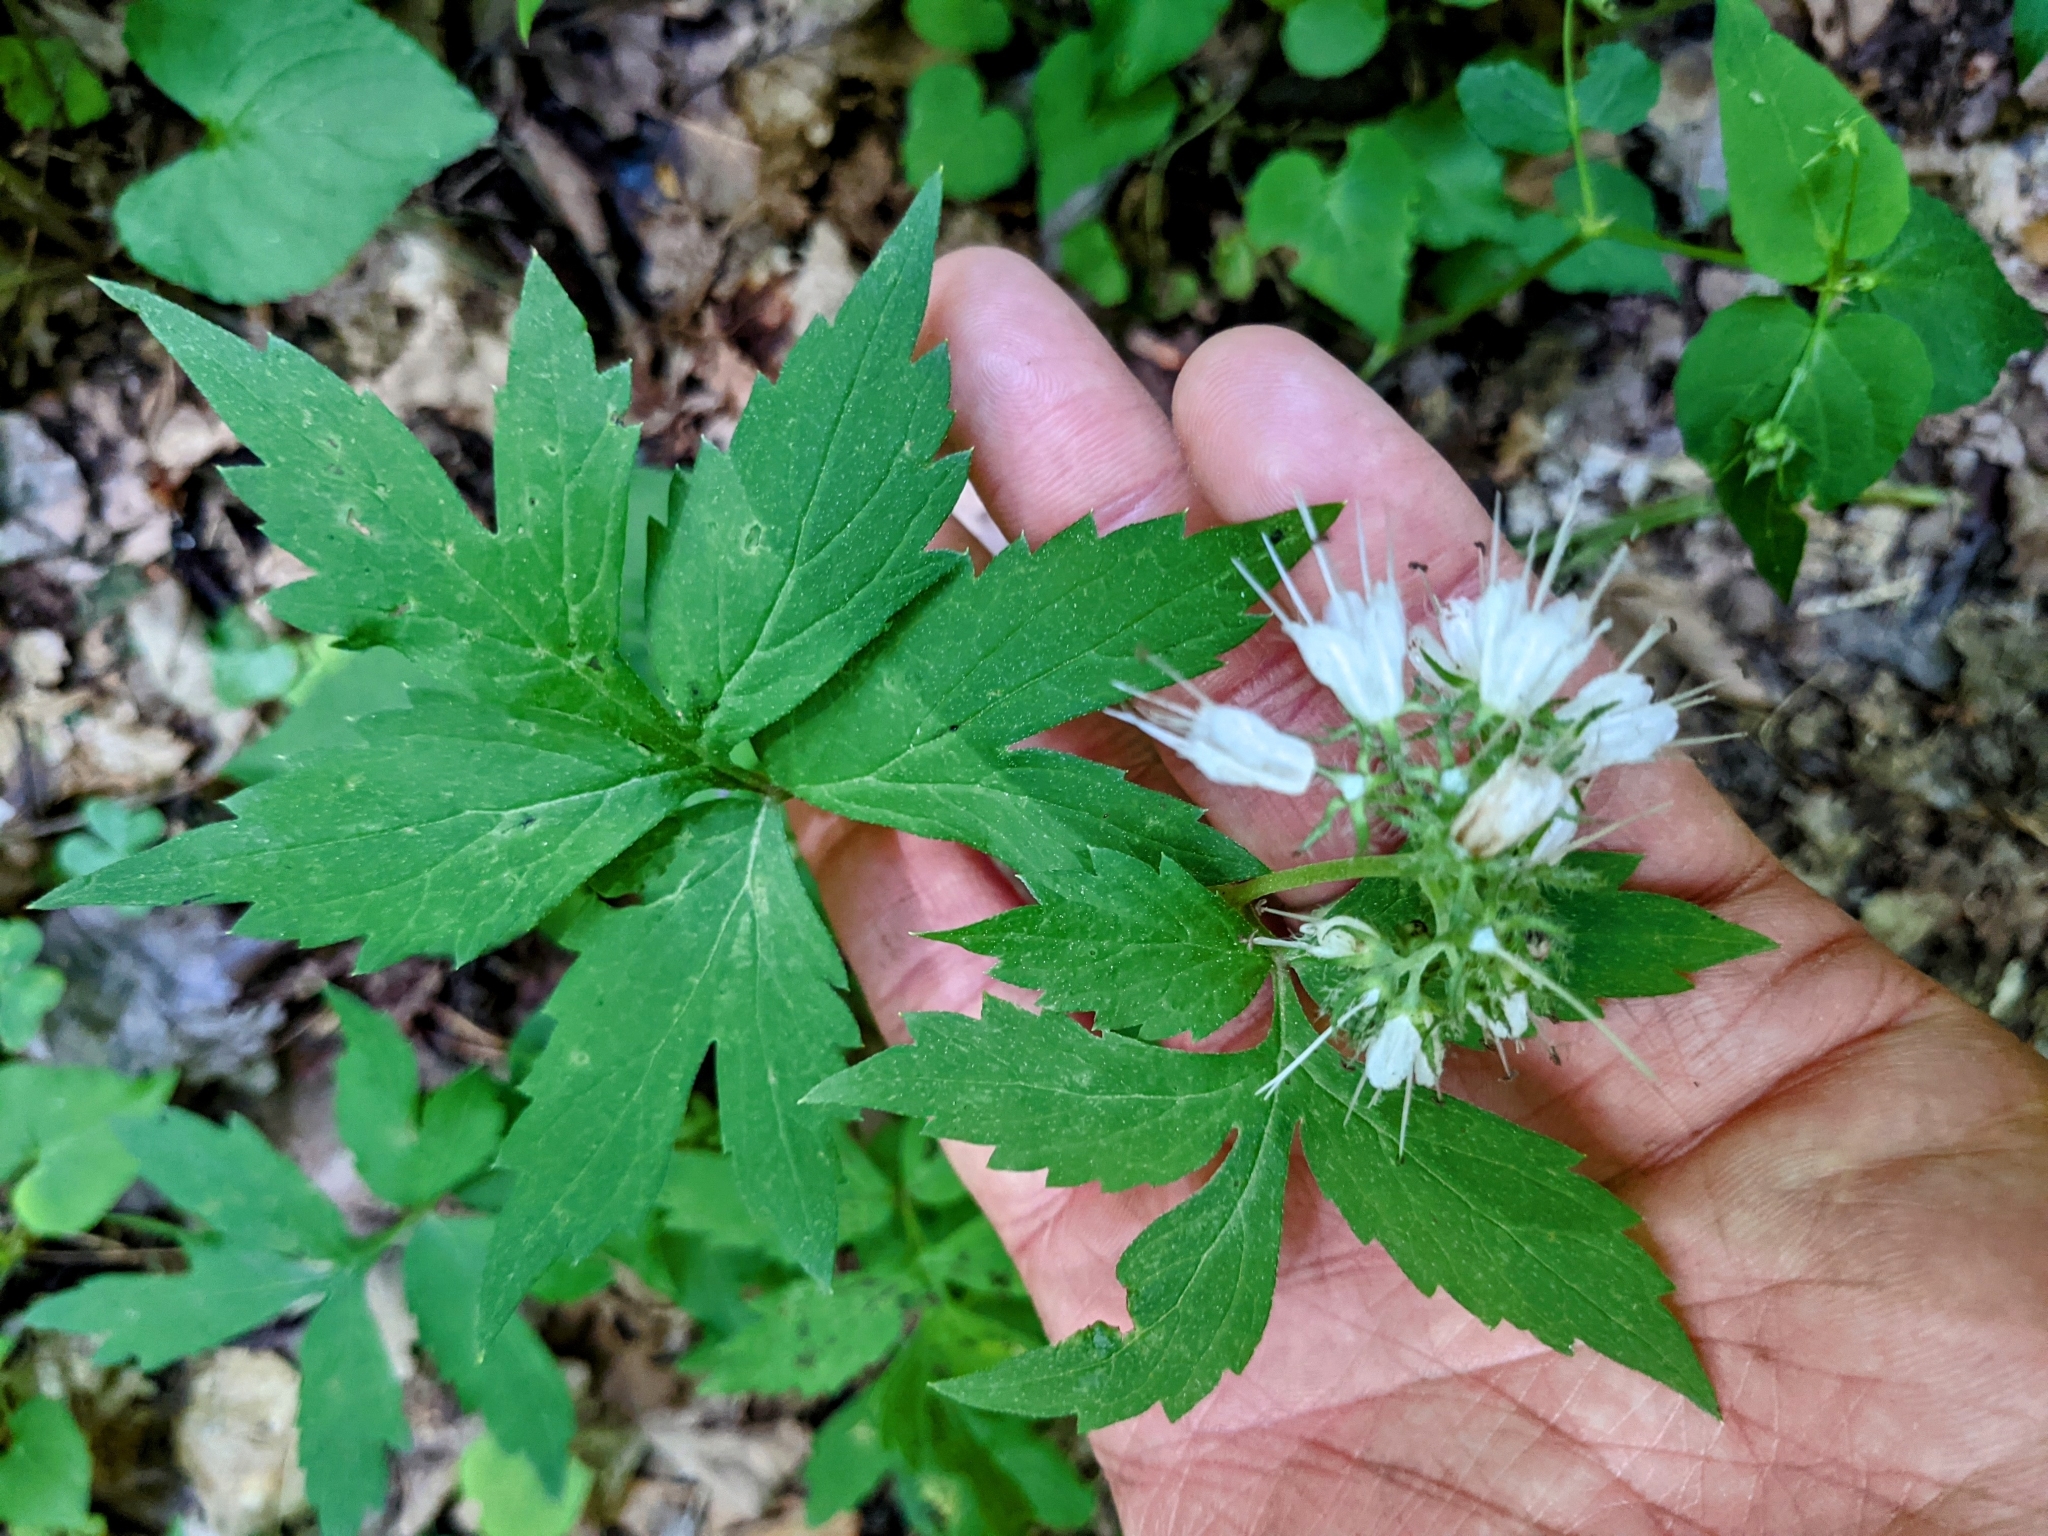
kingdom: Plantae
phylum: Tracheophyta
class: Magnoliopsida
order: Boraginales
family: Hydrophyllaceae
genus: Hydrophyllum
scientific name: Hydrophyllum virginianum
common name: Virginia waterleaf
